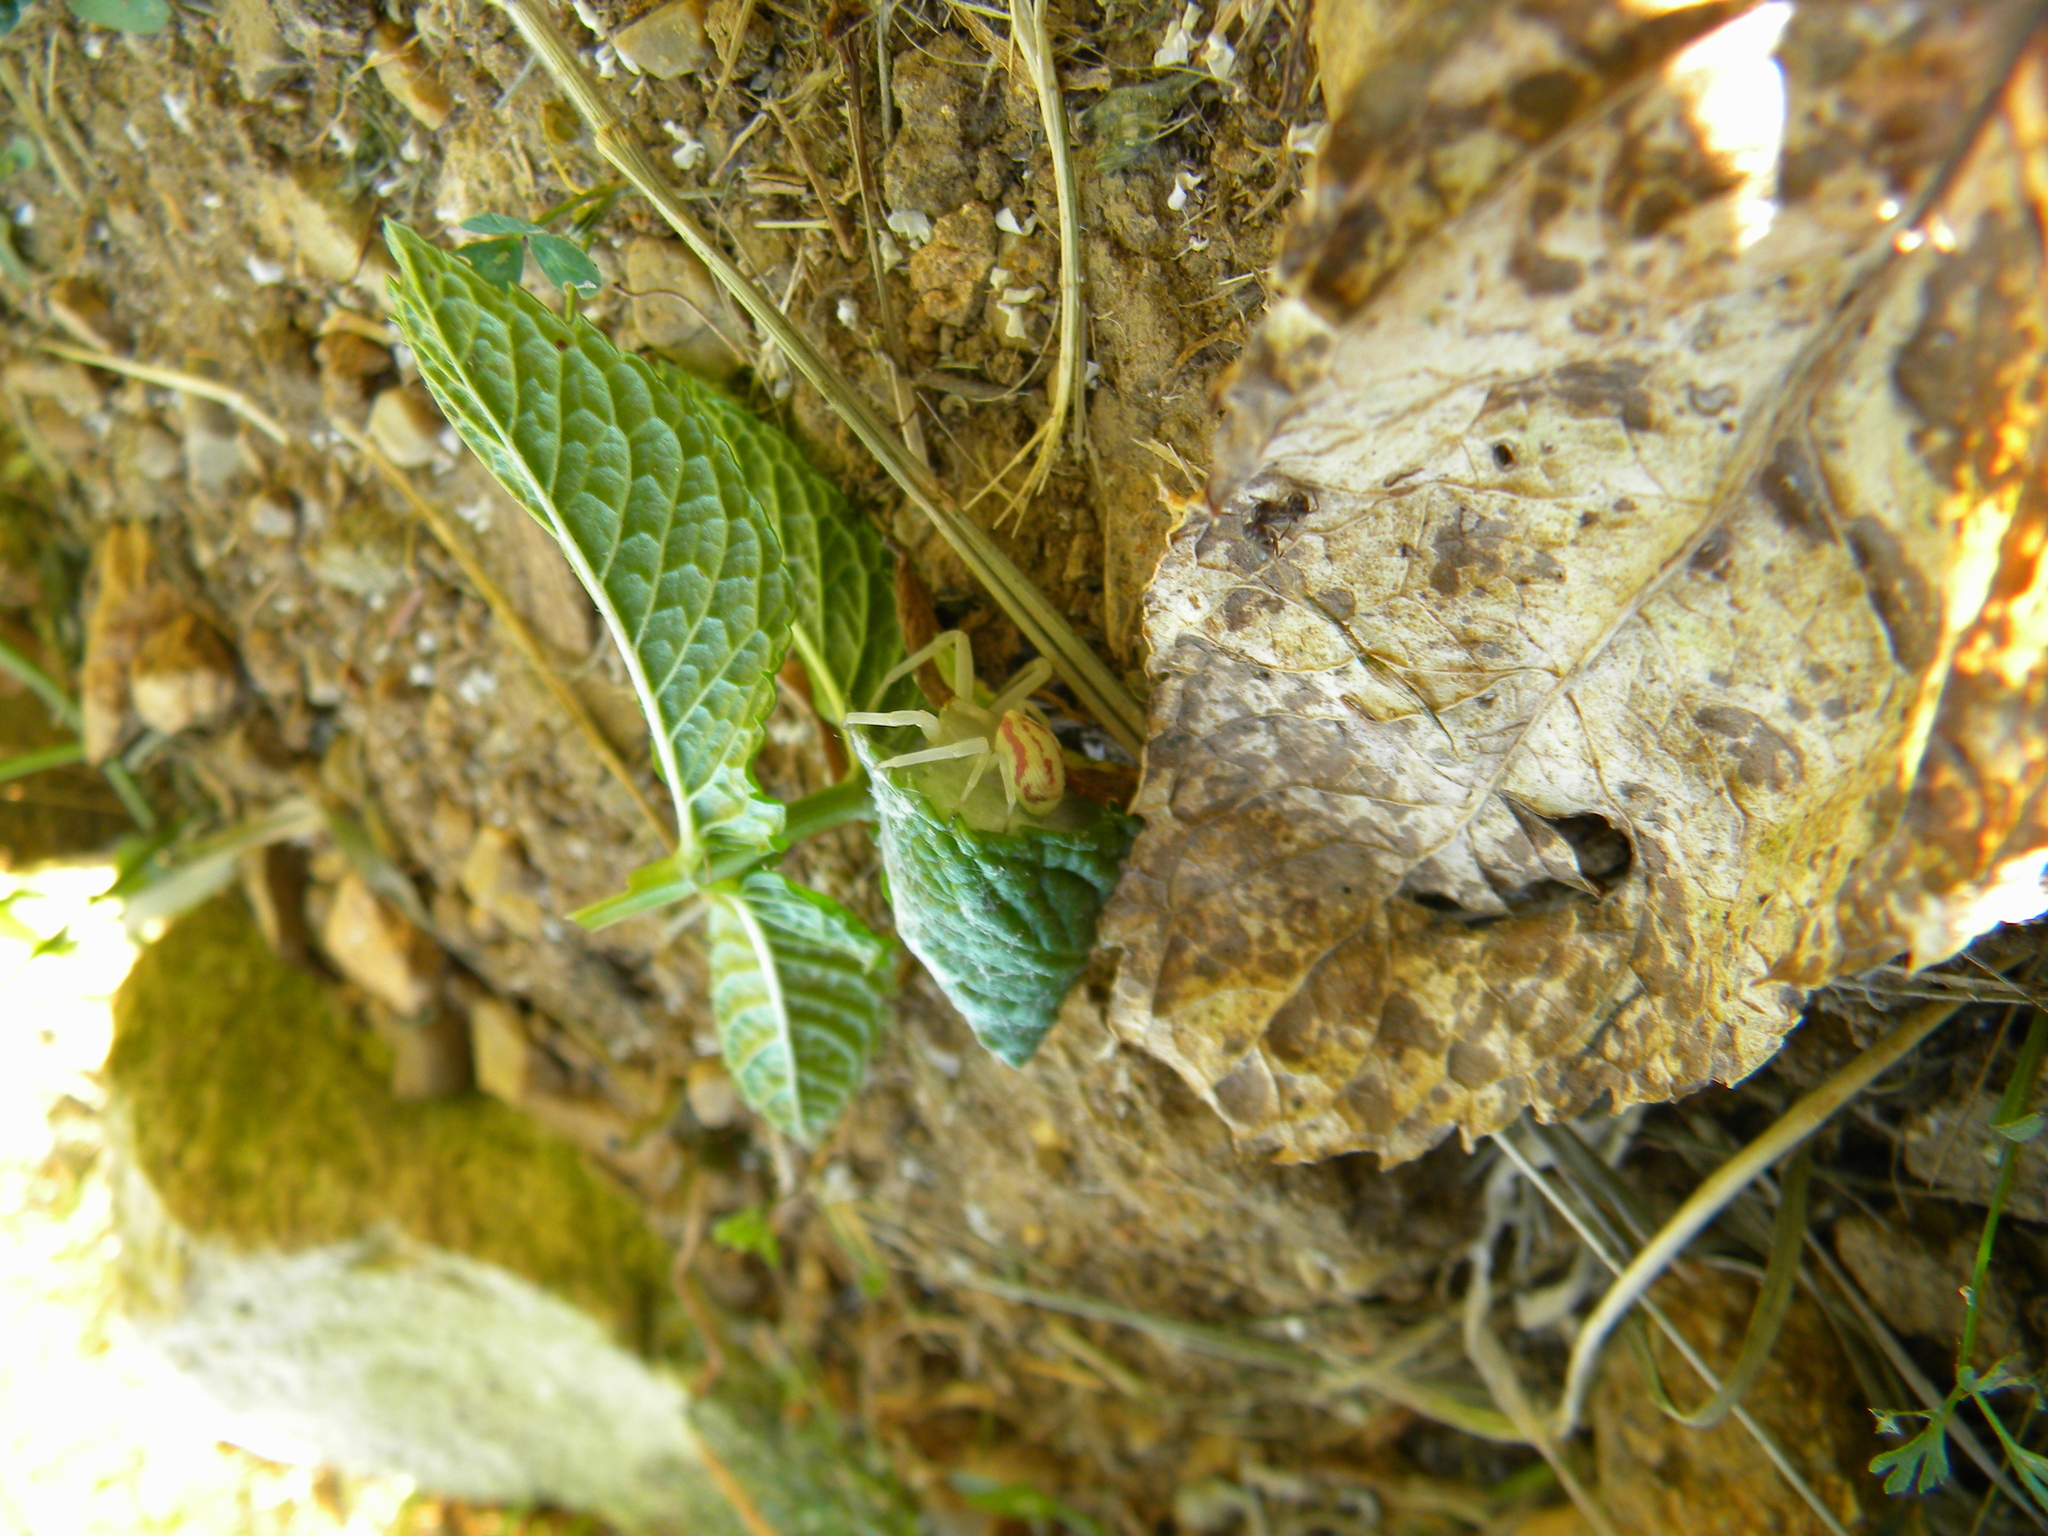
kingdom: Animalia
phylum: Arthropoda
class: Arachnida
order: Araneae
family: Thomisidae
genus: Misumena
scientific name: Misumena vatia
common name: Goldenrod crab spider
